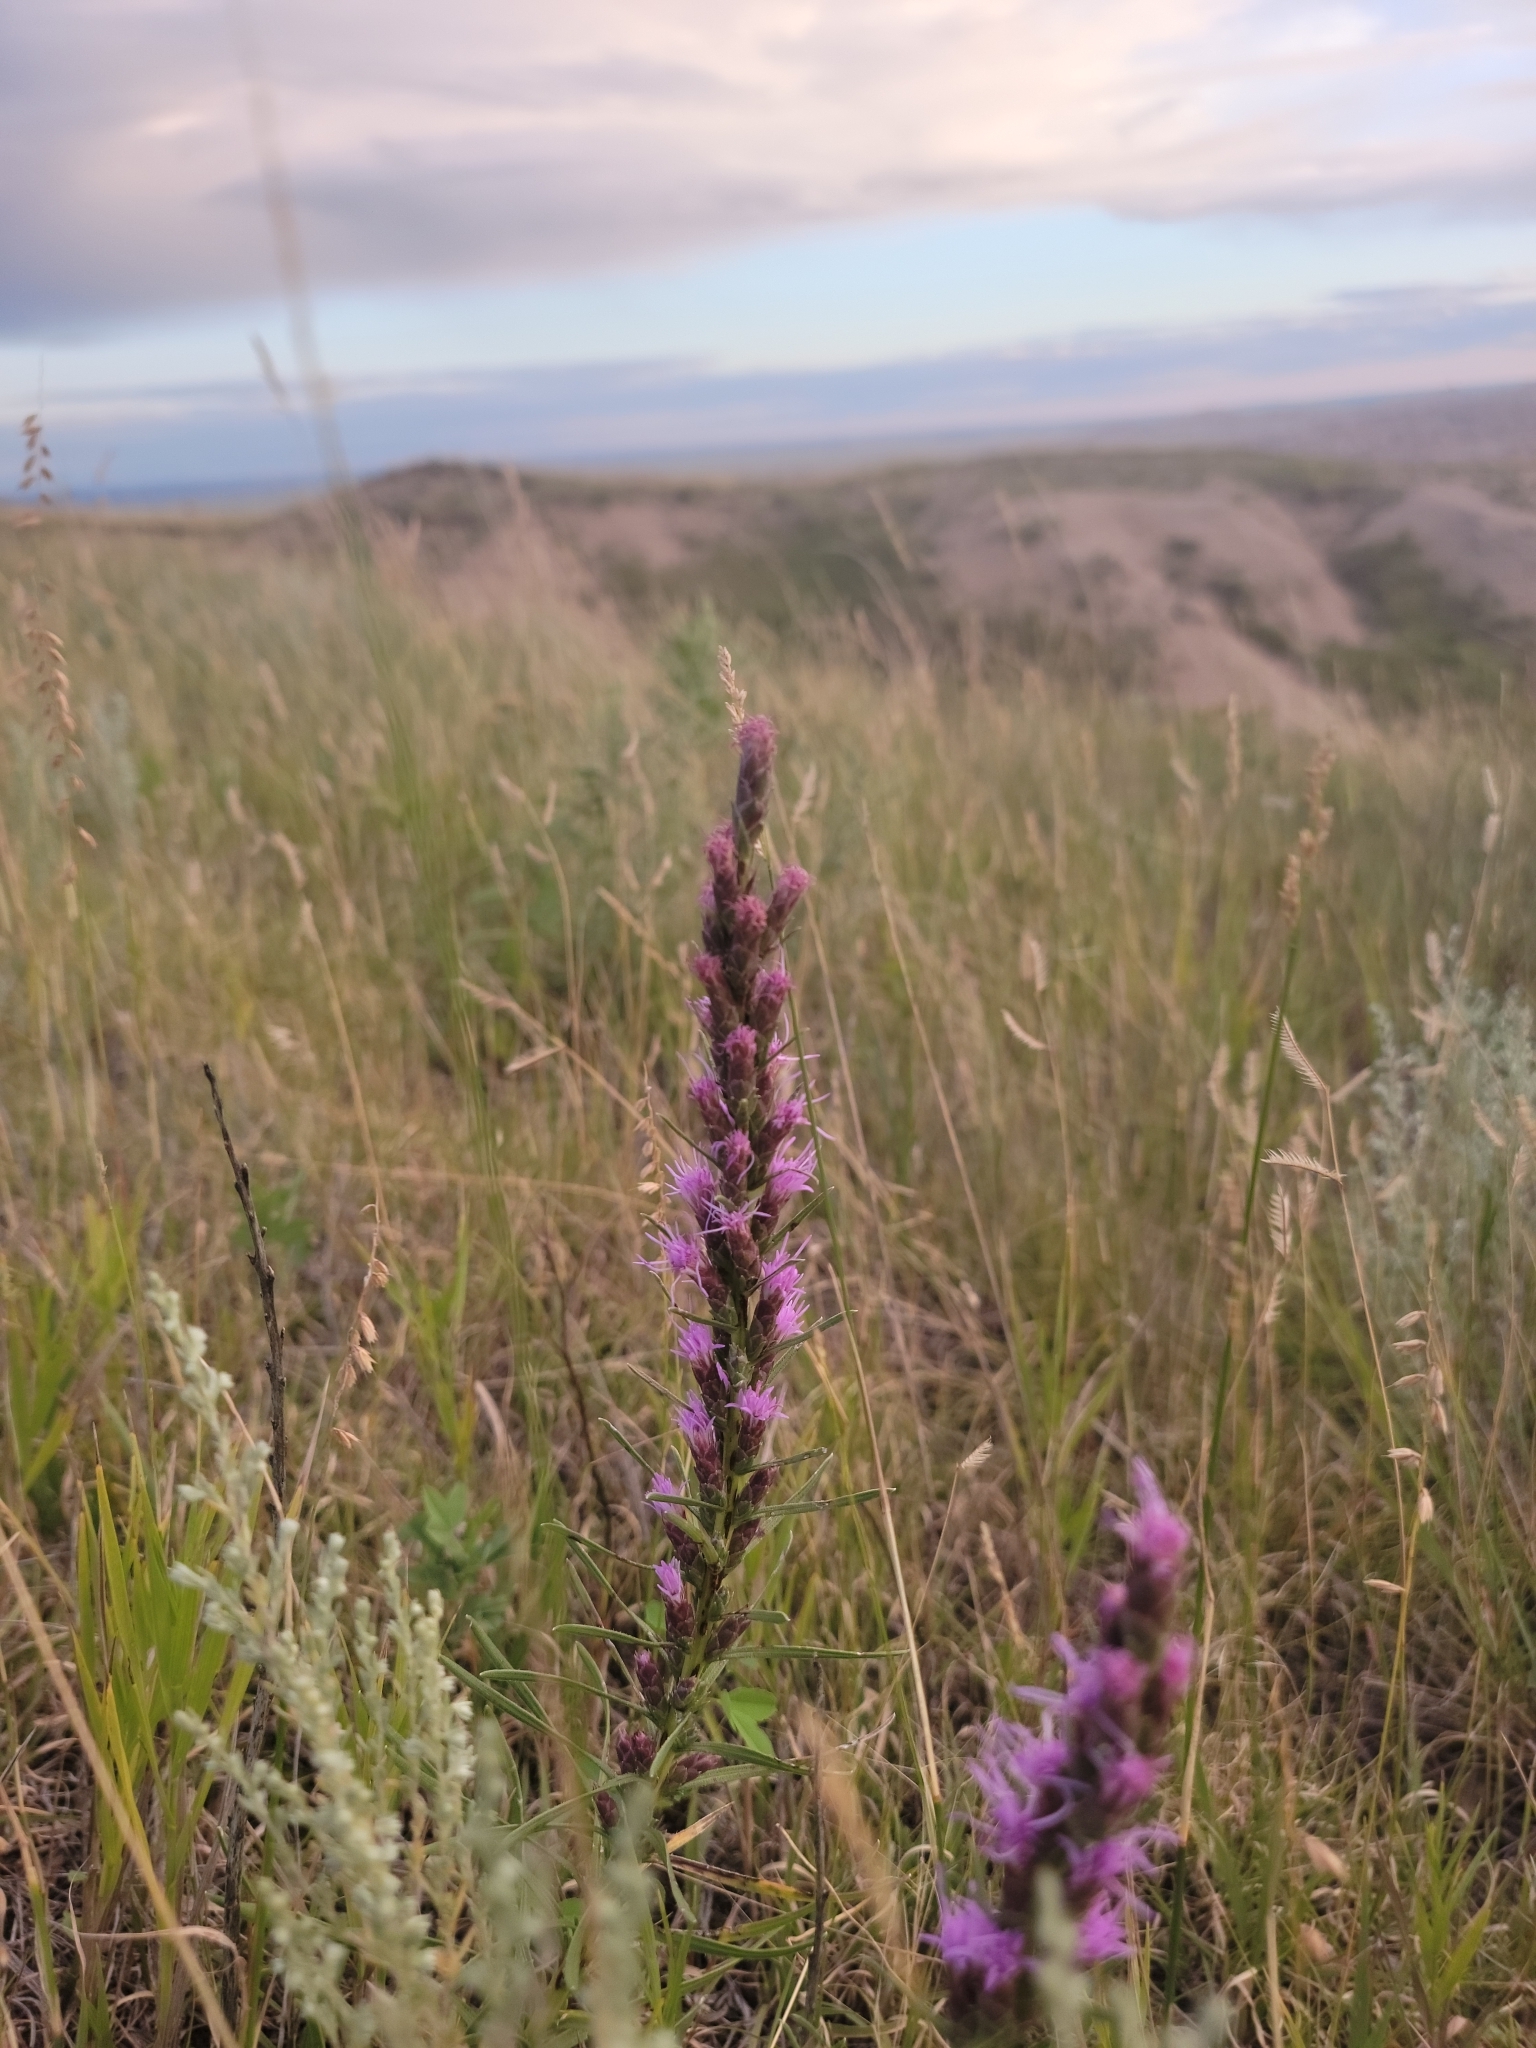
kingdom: Plantae
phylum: Tracheophyta
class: Magnoliopsida
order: Asterales
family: Asteraceae
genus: Liatris
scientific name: Liatris punctata
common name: Dotted gayfeather
